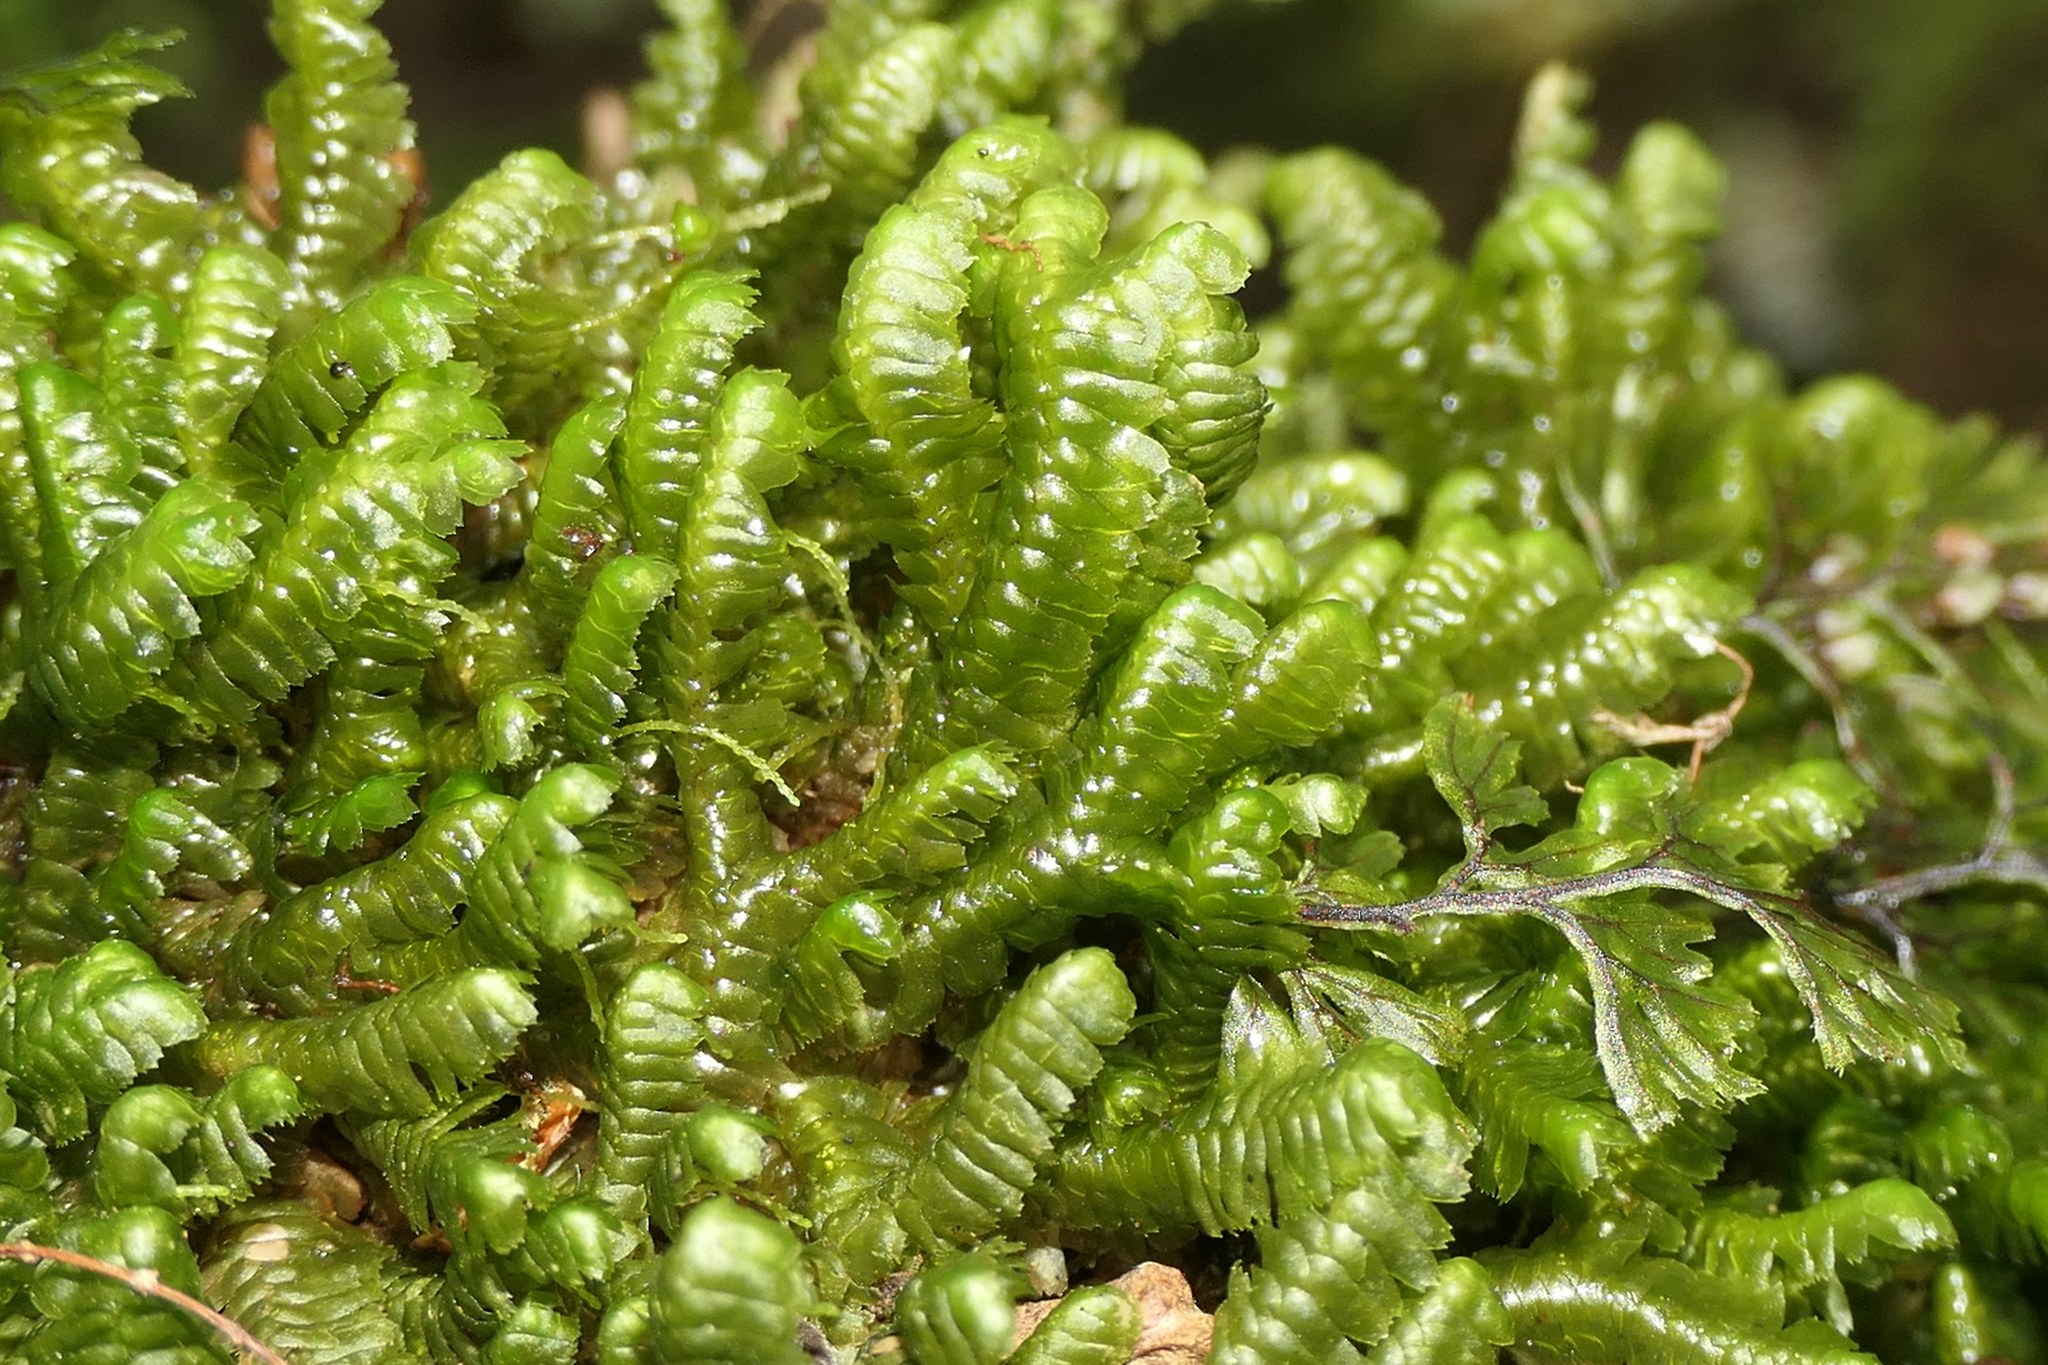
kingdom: Plantae
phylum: Marchantiophyta
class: Jungermanniopsida
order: Jungermanniales
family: Lepidoziaceae
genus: Bazzania
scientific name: Bazzania trilobata
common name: Three-lobed whipwort
